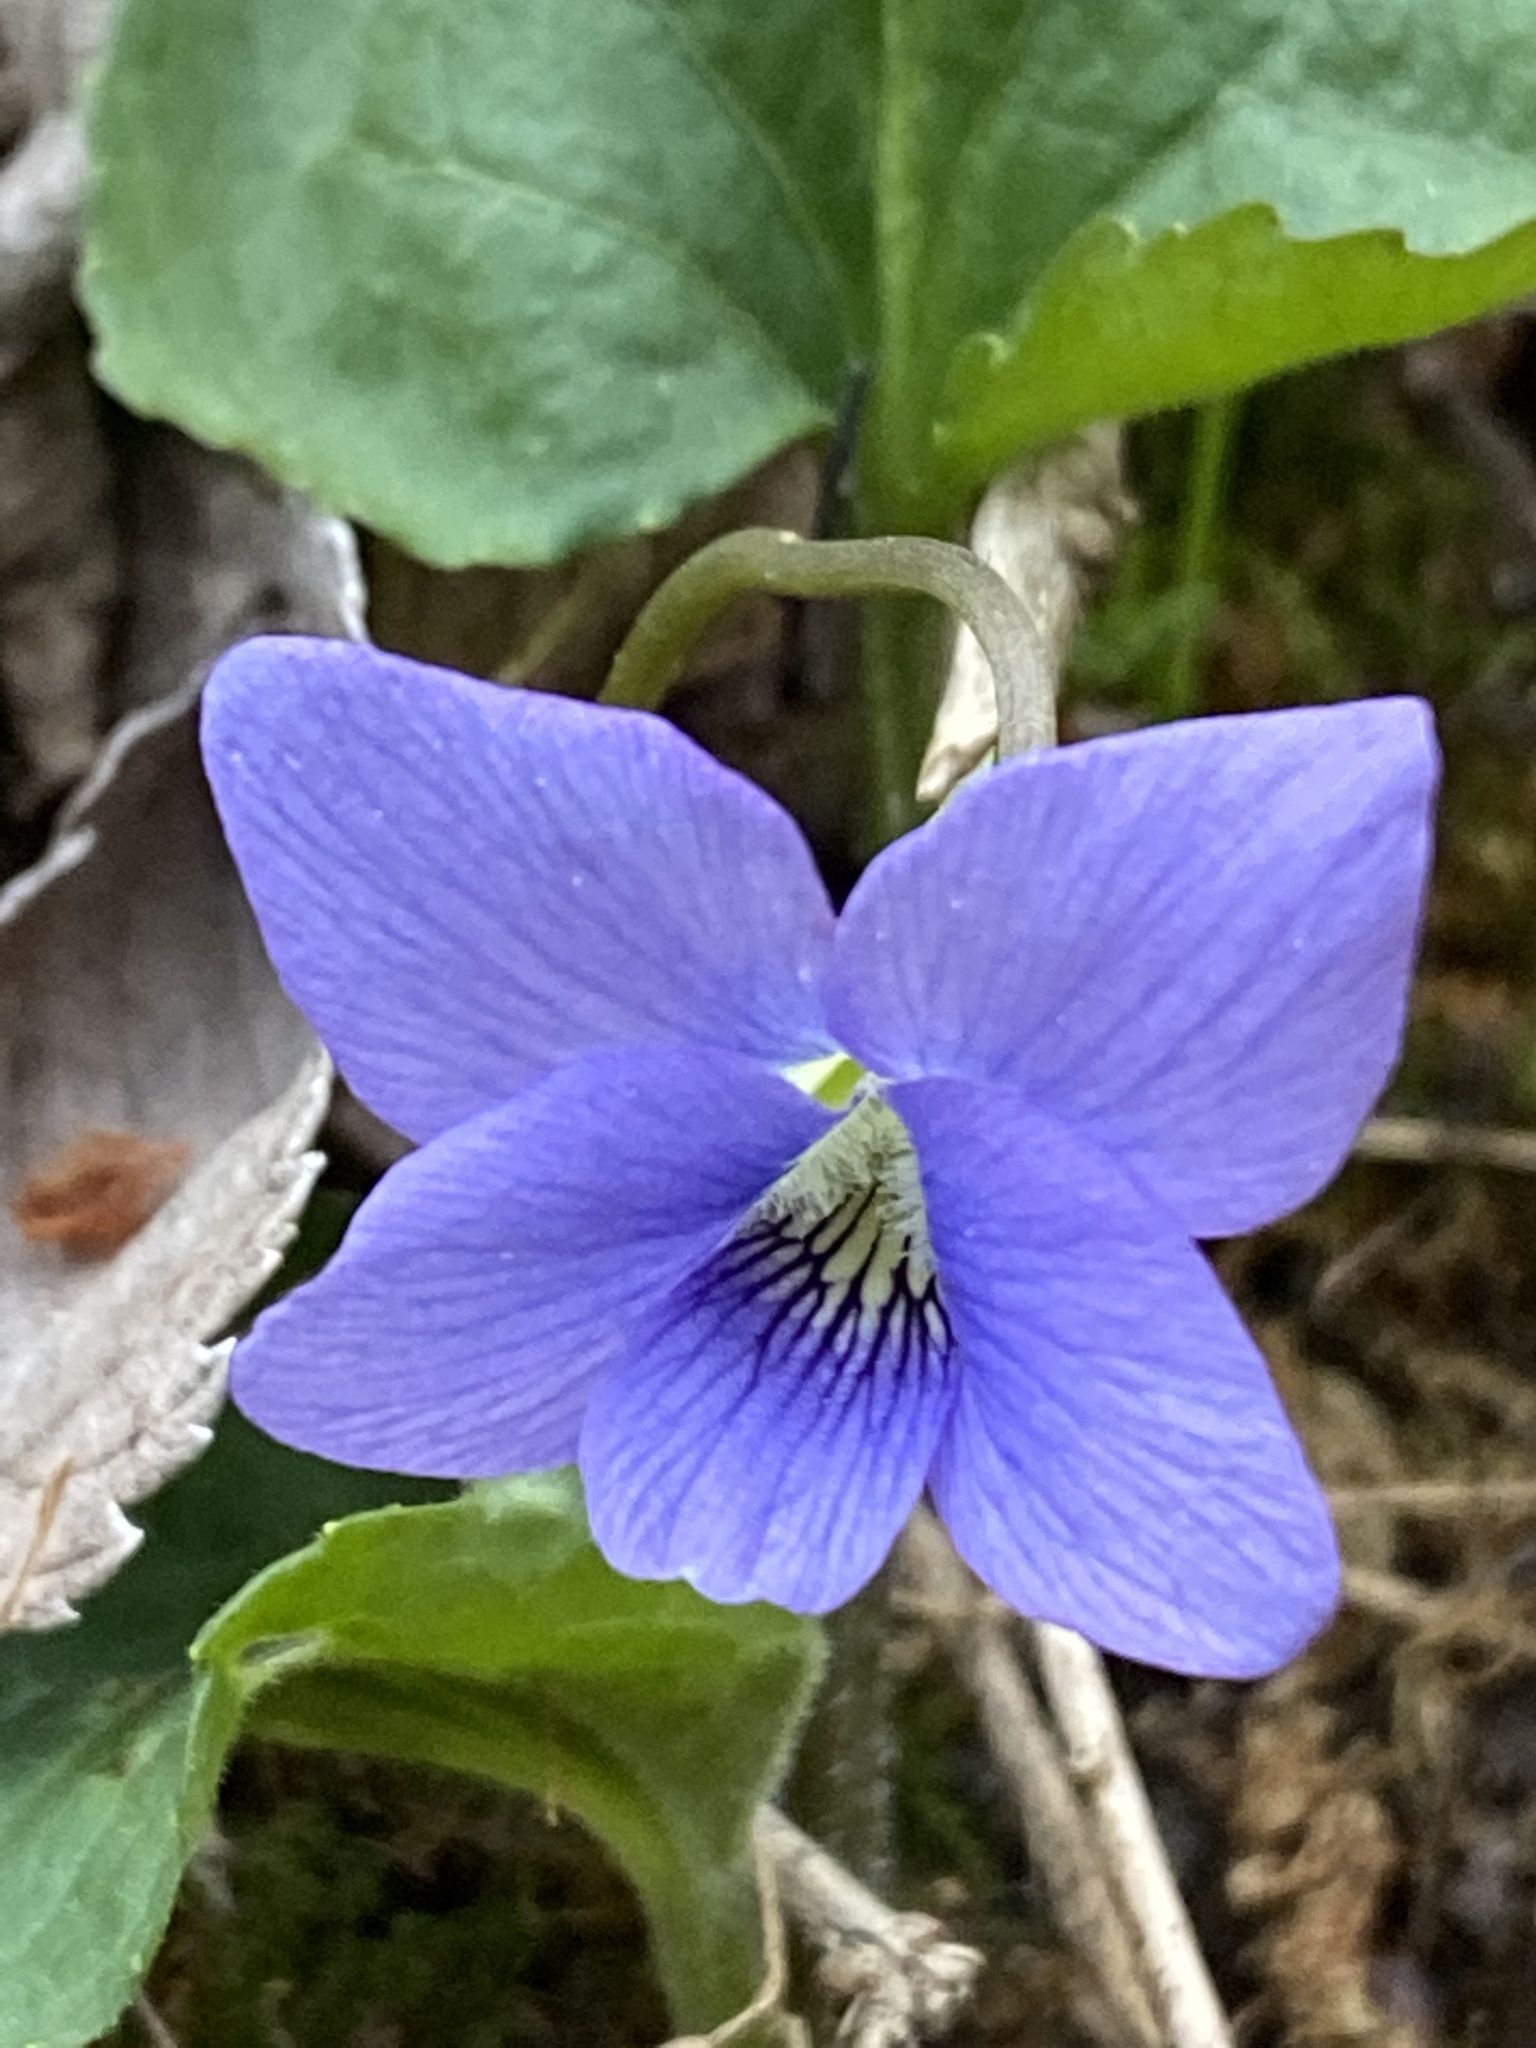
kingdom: Plantae
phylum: Tracheophyta
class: Magnoliopsida
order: Malpighiales
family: Violaceae
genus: Viola
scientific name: Viola sororia
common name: Dooryard violet
